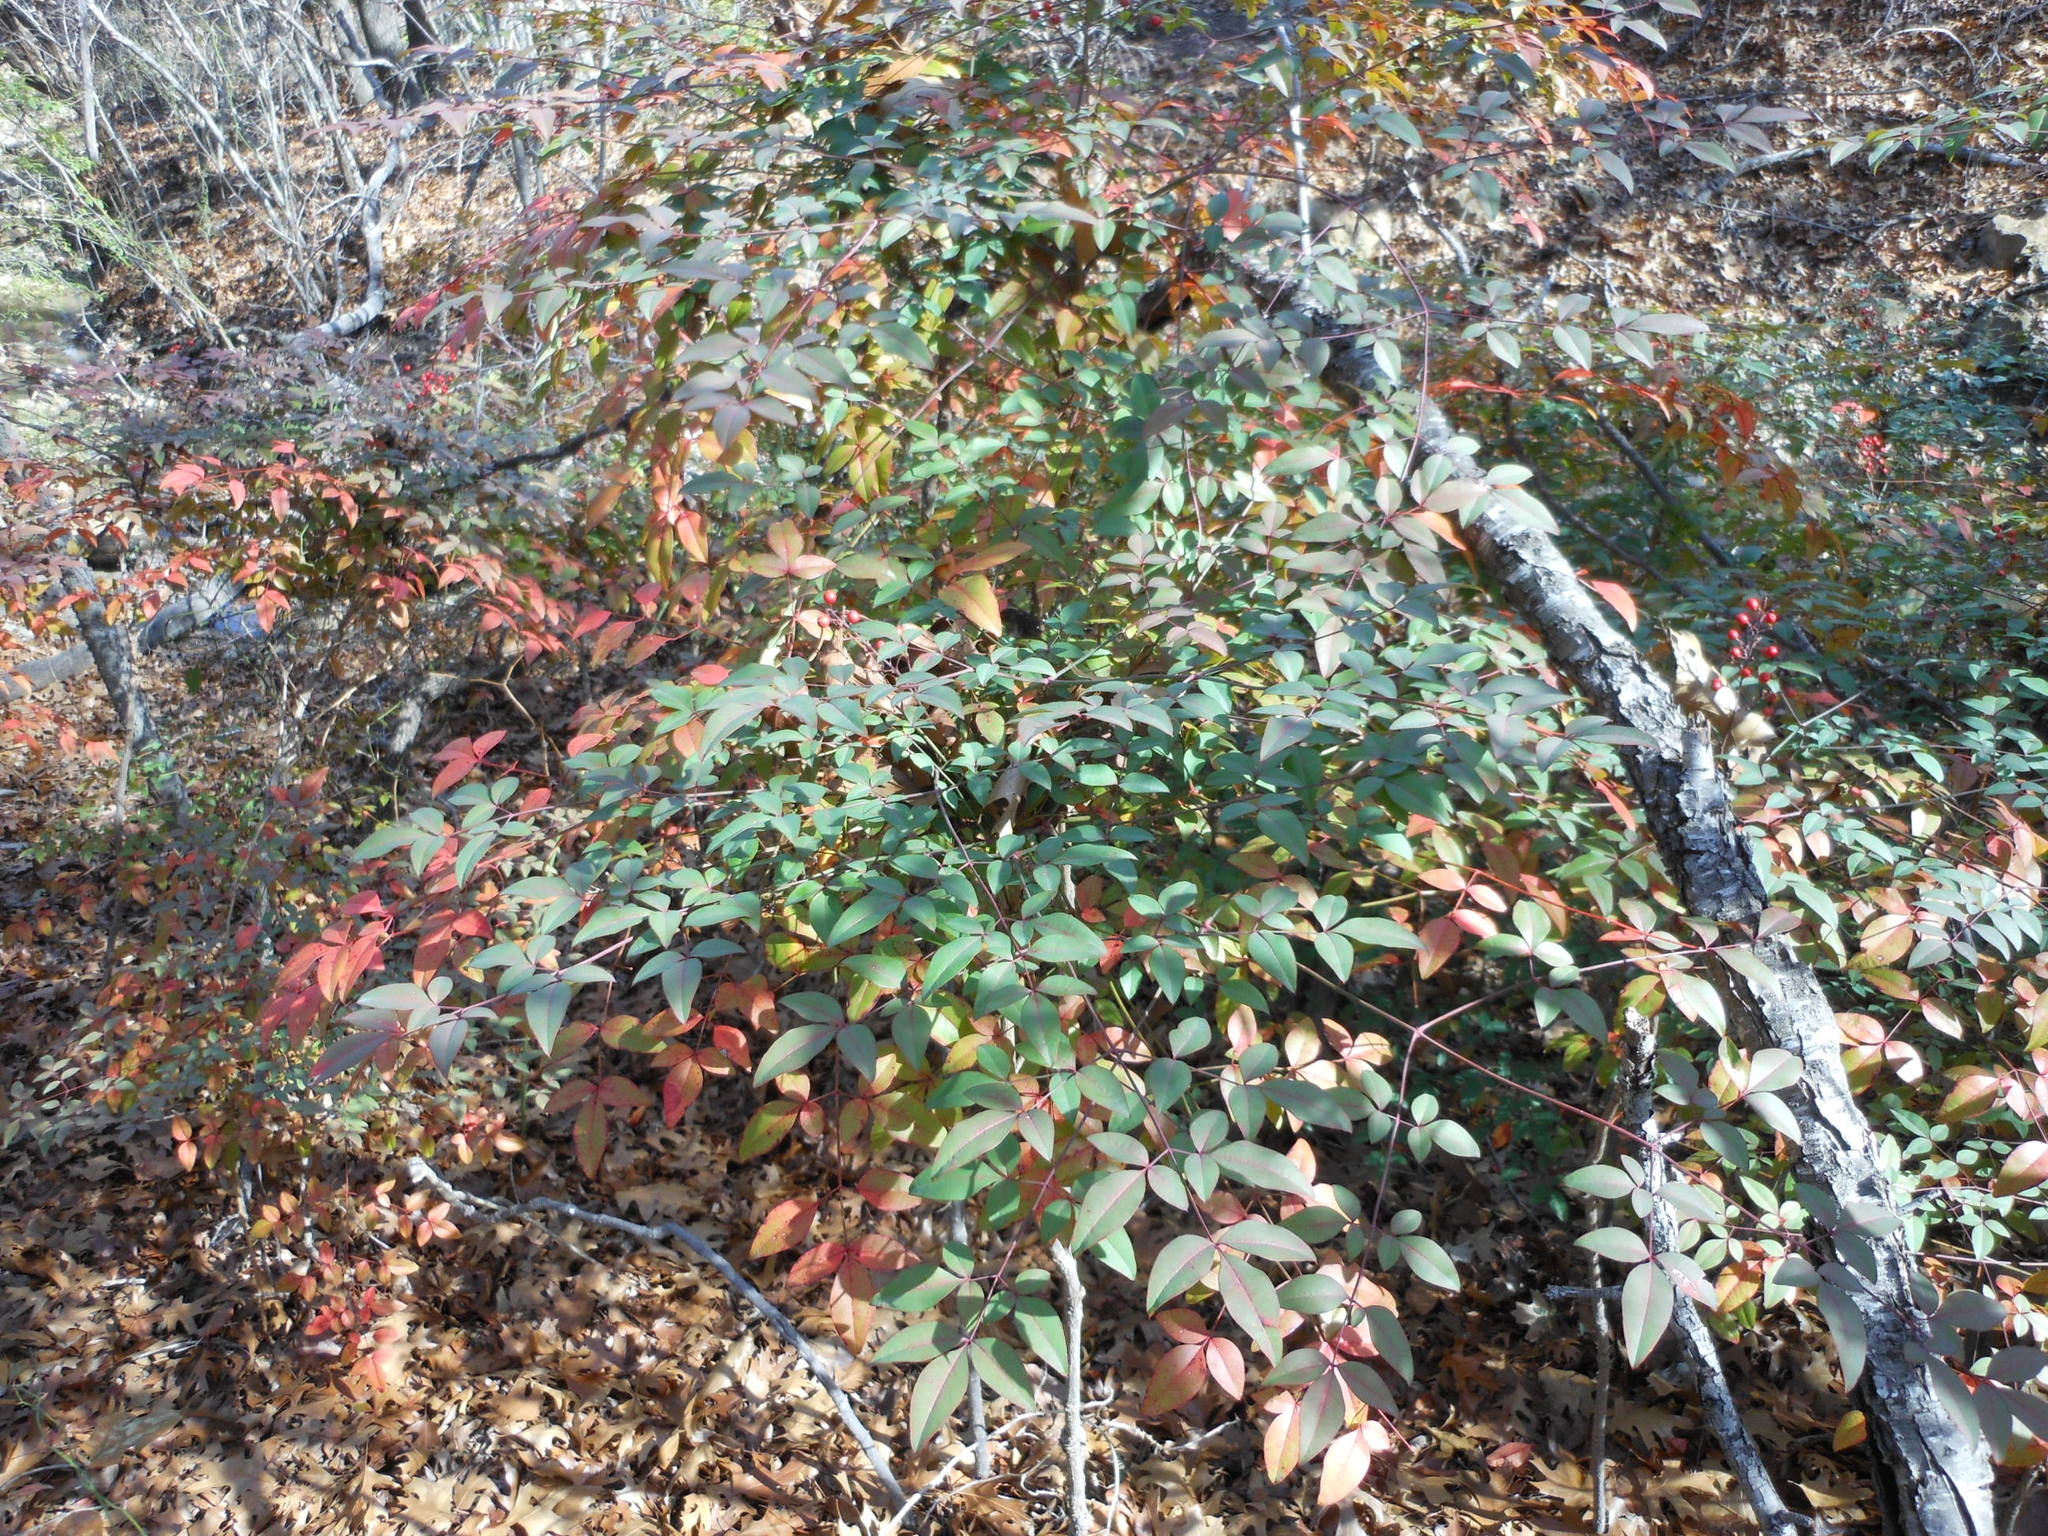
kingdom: Plantae
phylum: Tracheophyta
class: Magnoliopsida
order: Ranunculales
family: Berberidaceae
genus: Nandina
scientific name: Nandina domestica
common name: Sacred bamboo
